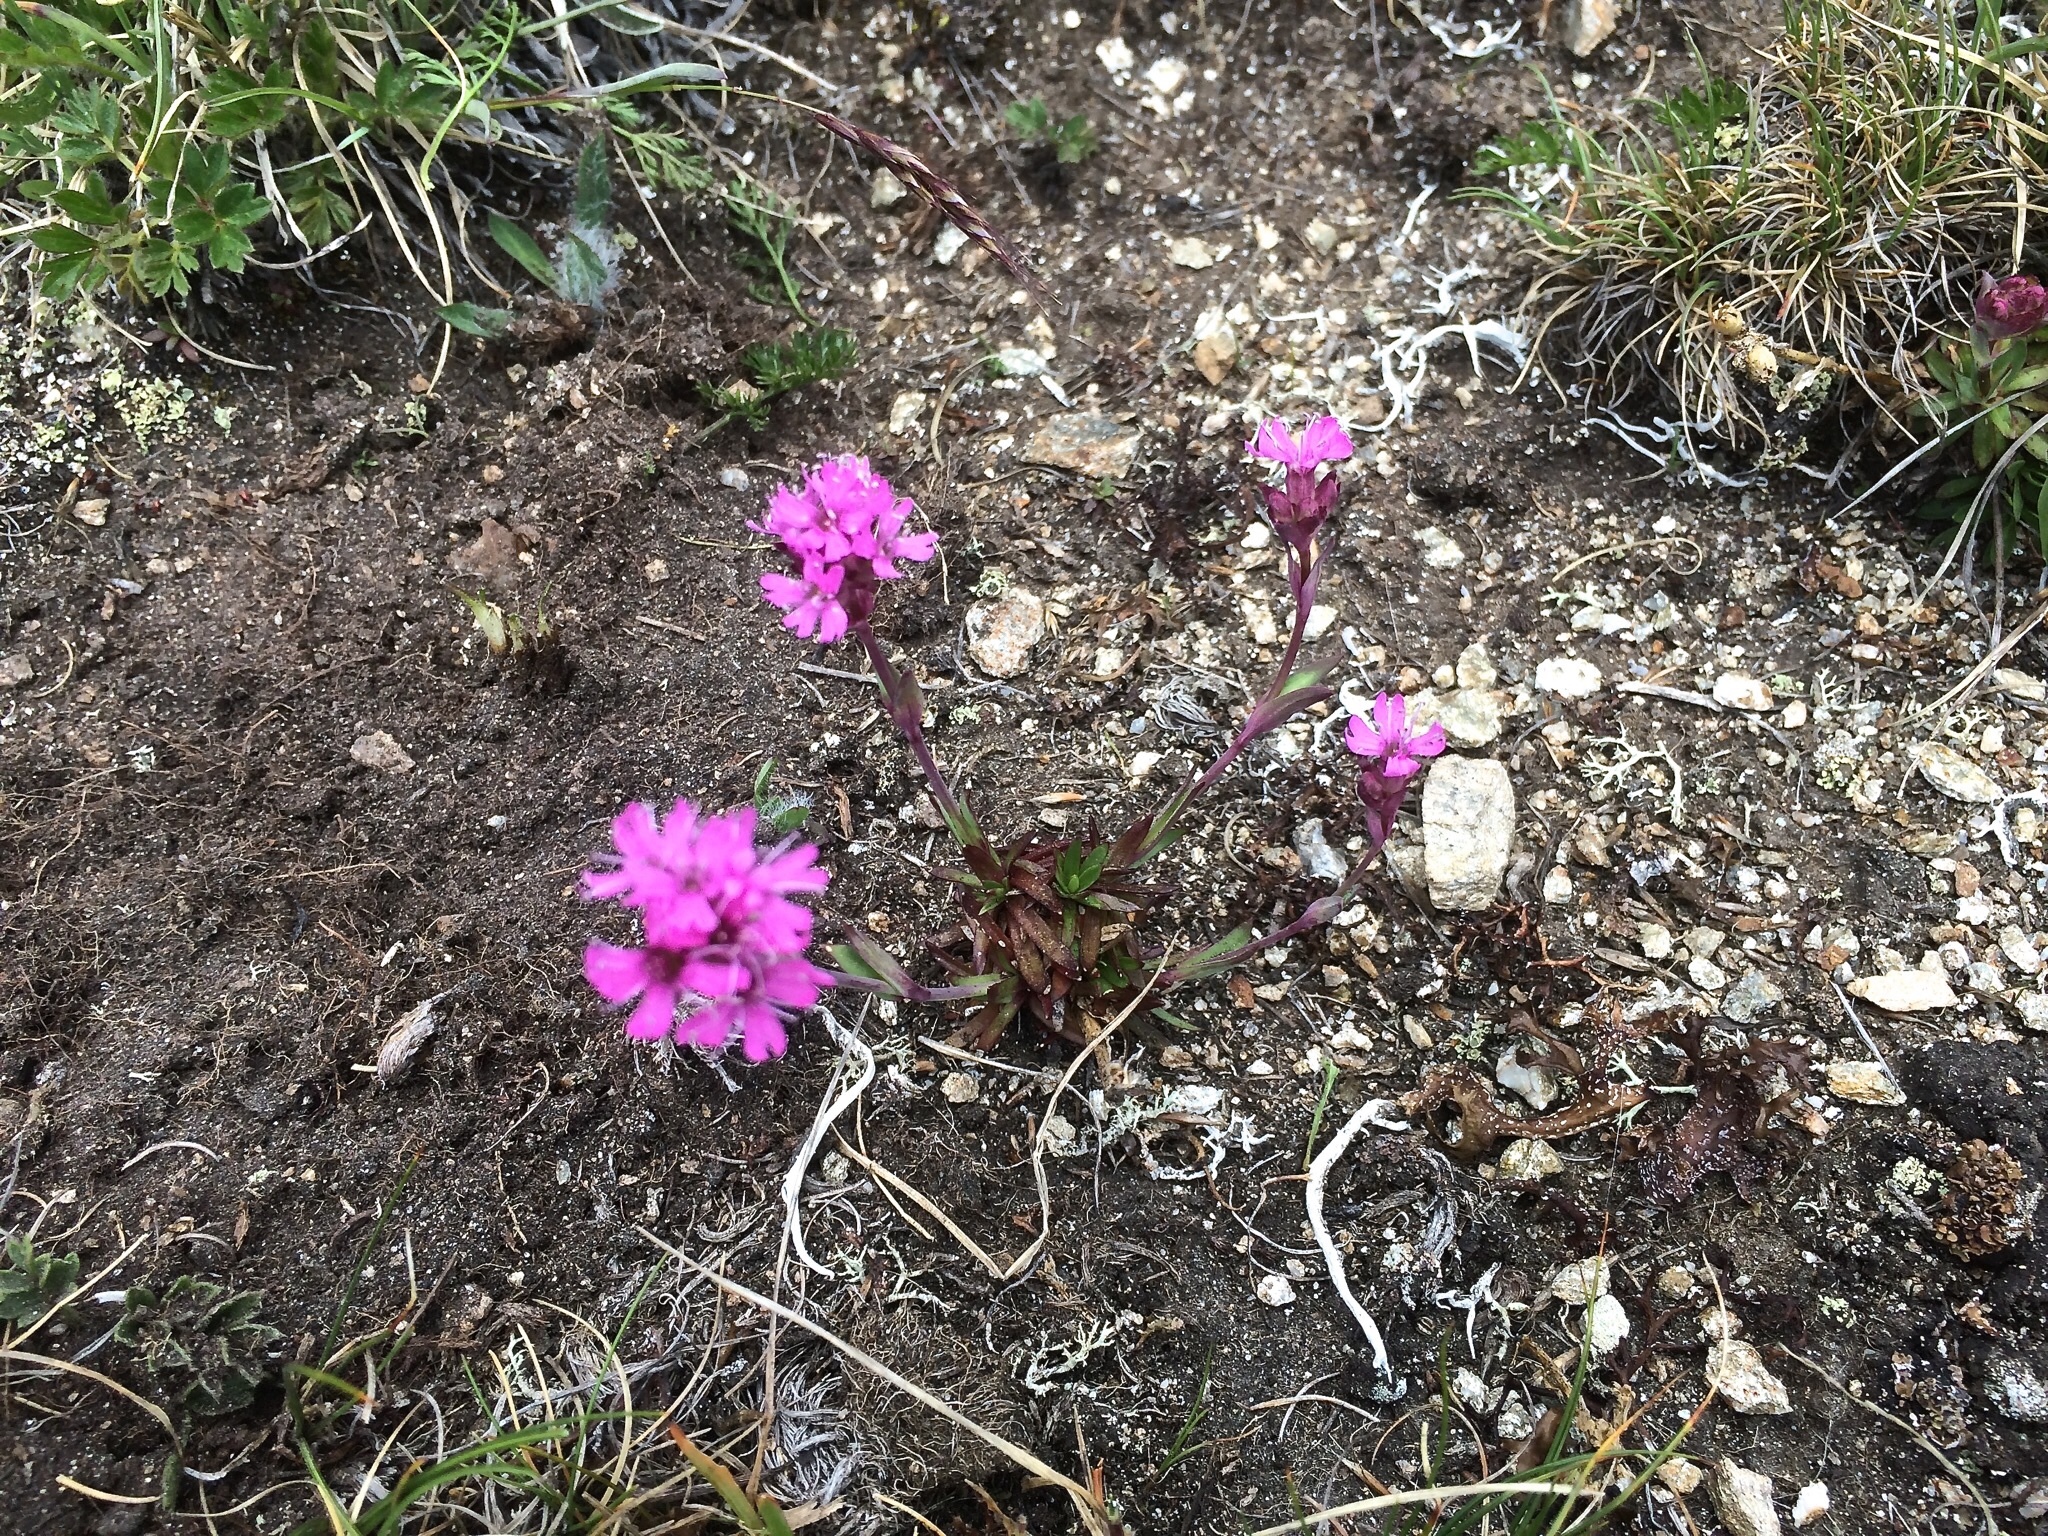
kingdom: Plantae
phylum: Tracheophyta
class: Magnoliopsida
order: Caryophyllales
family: Caryophyllaceae
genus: Viscaria
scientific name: Viscaria alpina
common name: Alpine campion
